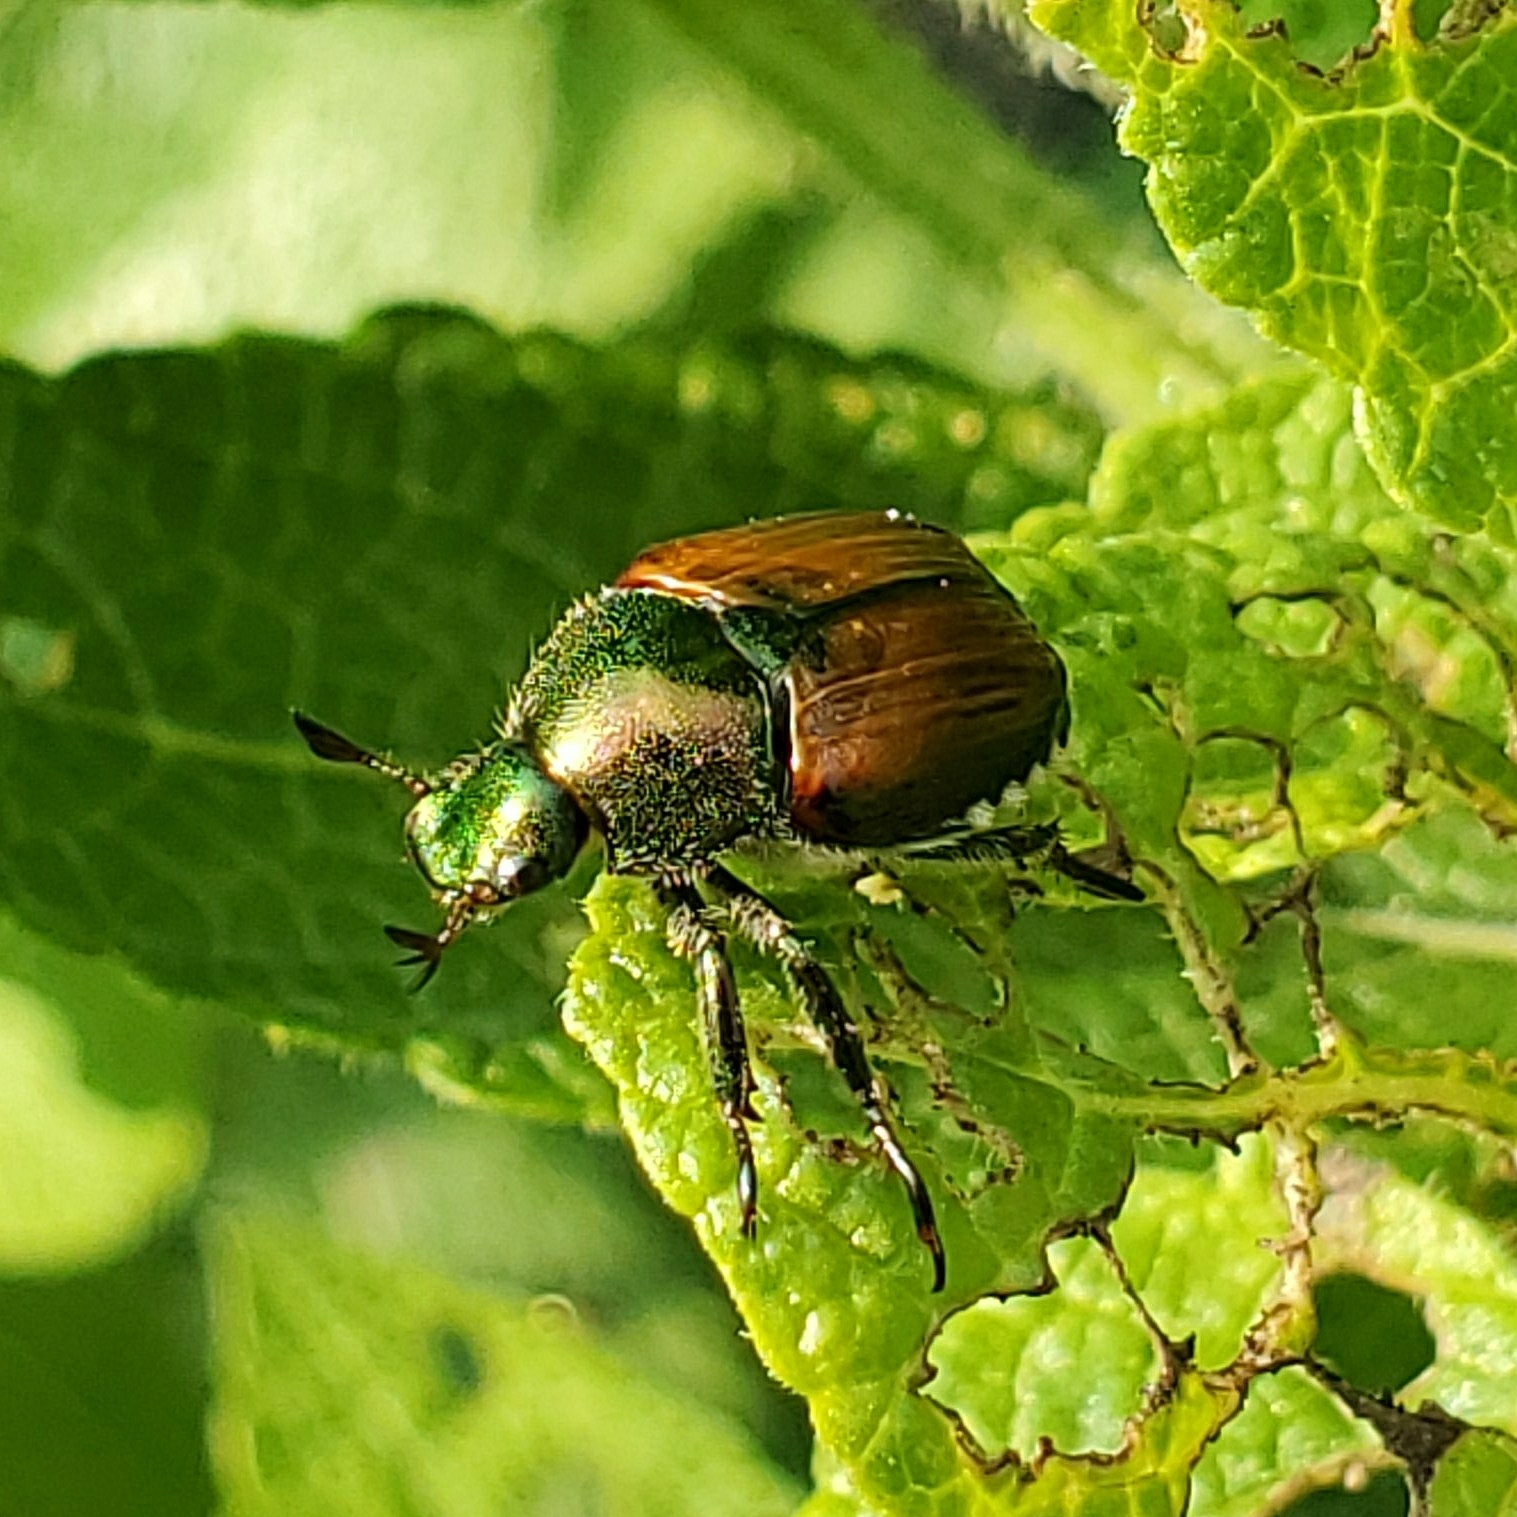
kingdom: Animalia
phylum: Arthropoda
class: Insecta
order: Coleoptera
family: Scarabaeidae
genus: Popillia
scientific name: Popillia japonica
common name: Japanese beetle
